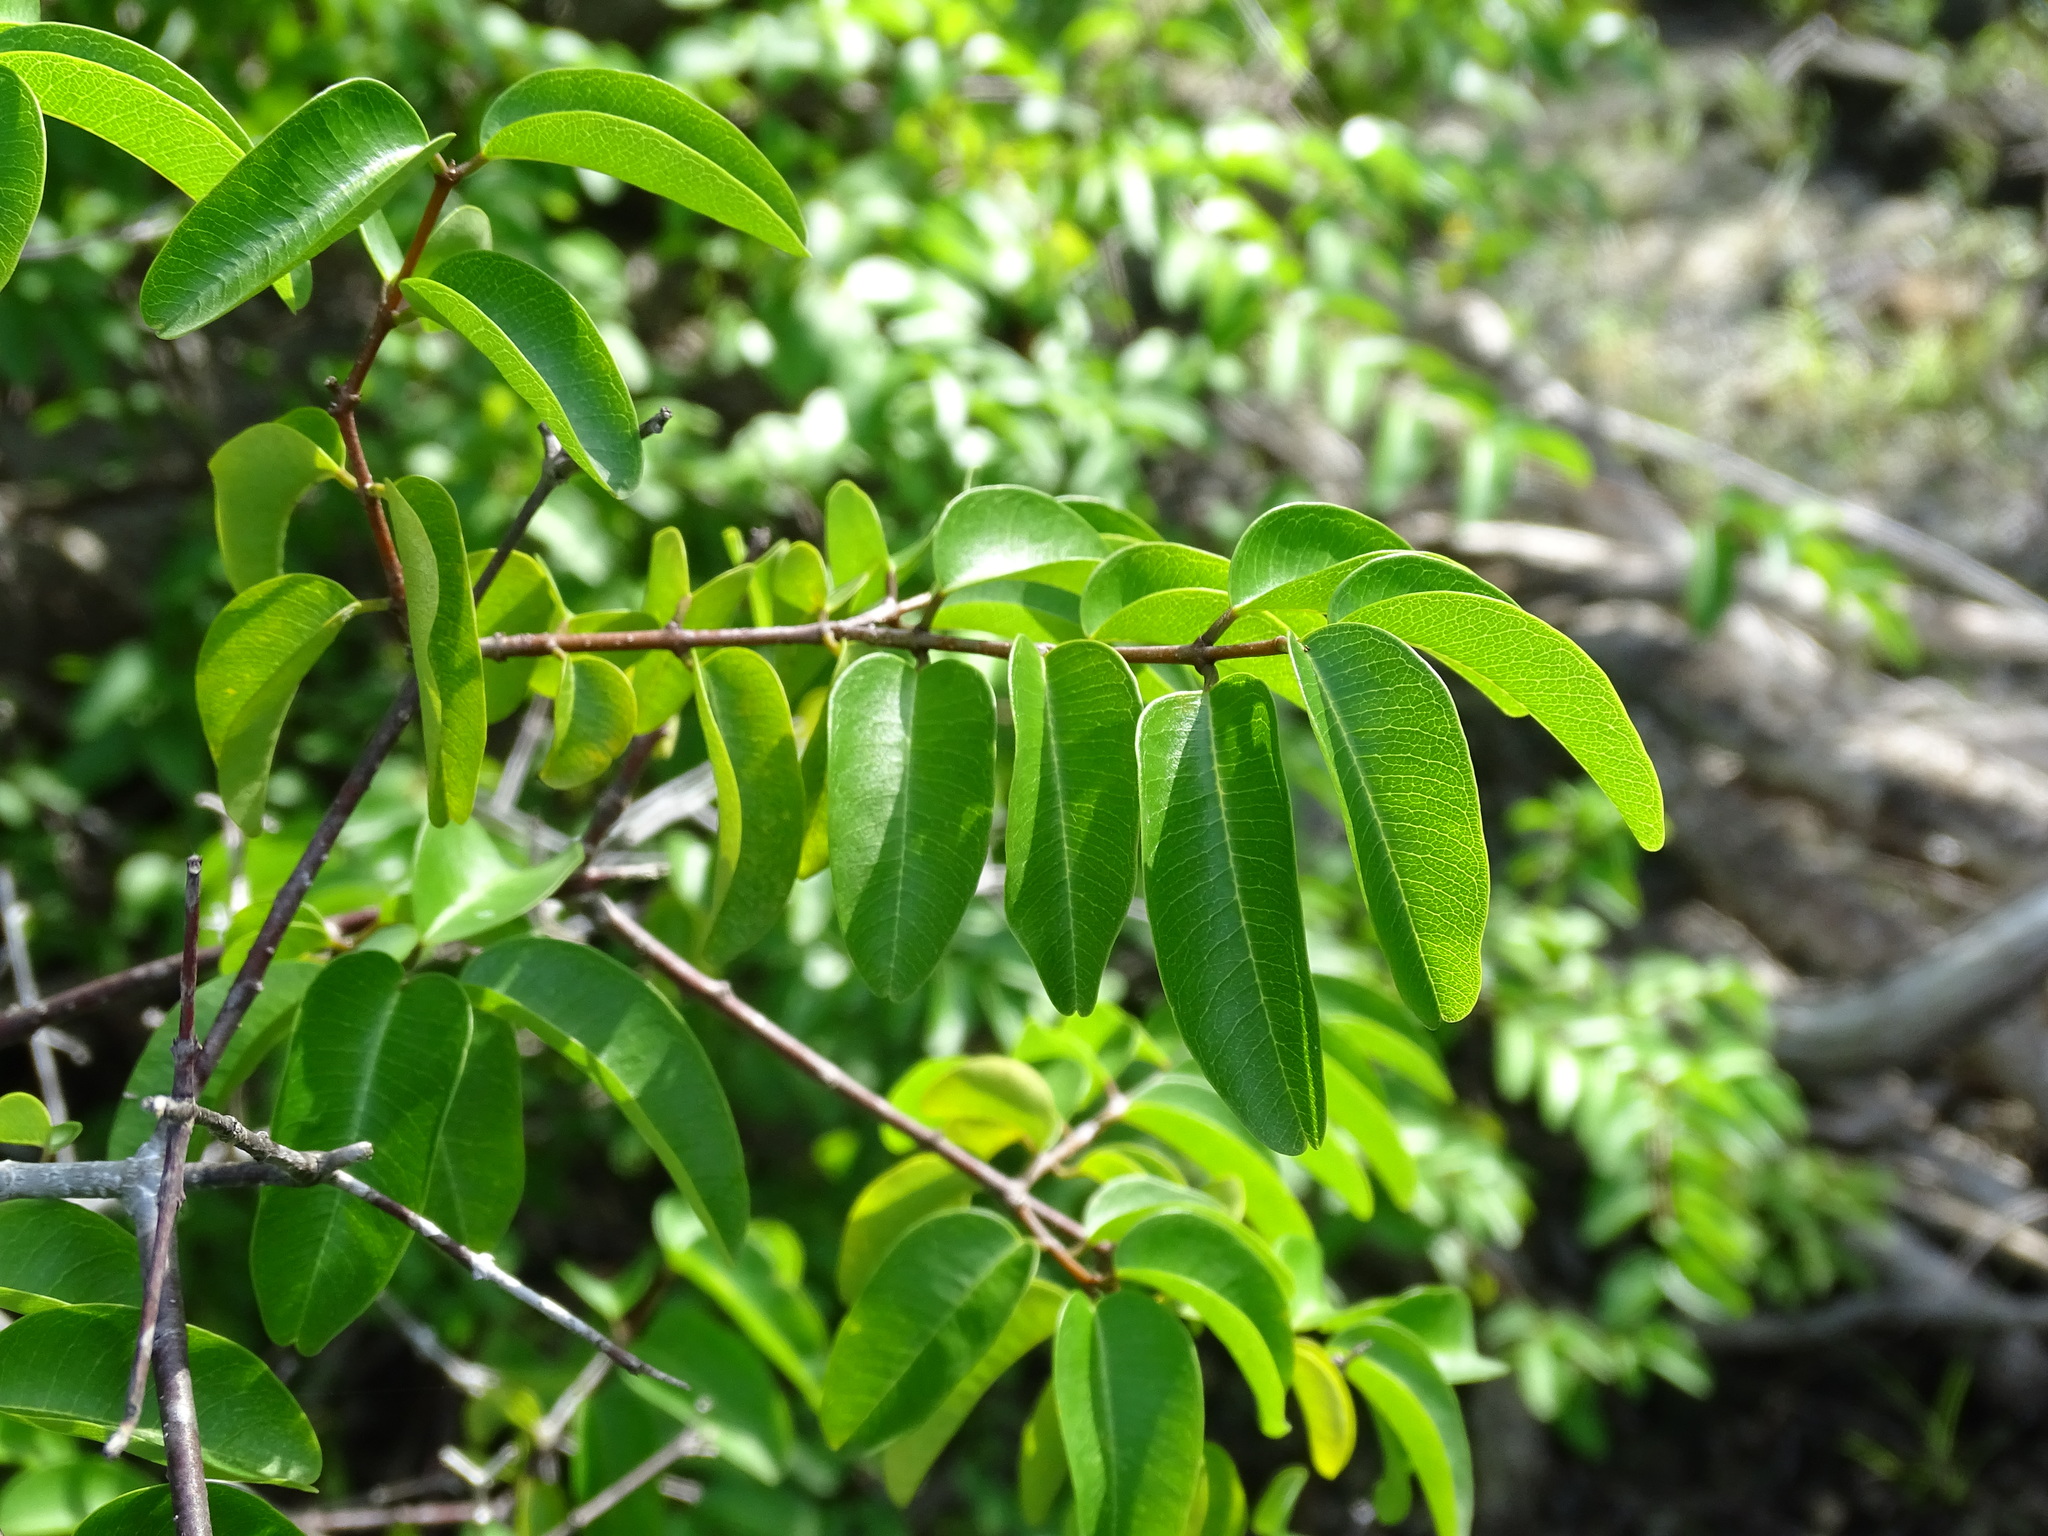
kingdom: Plantae
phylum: Tracheophyta
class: Magnoliopsida
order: Gentianales
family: Apocynaceae
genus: Cameraria
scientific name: Cameraria latifolia
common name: Savanna white poisonwood
